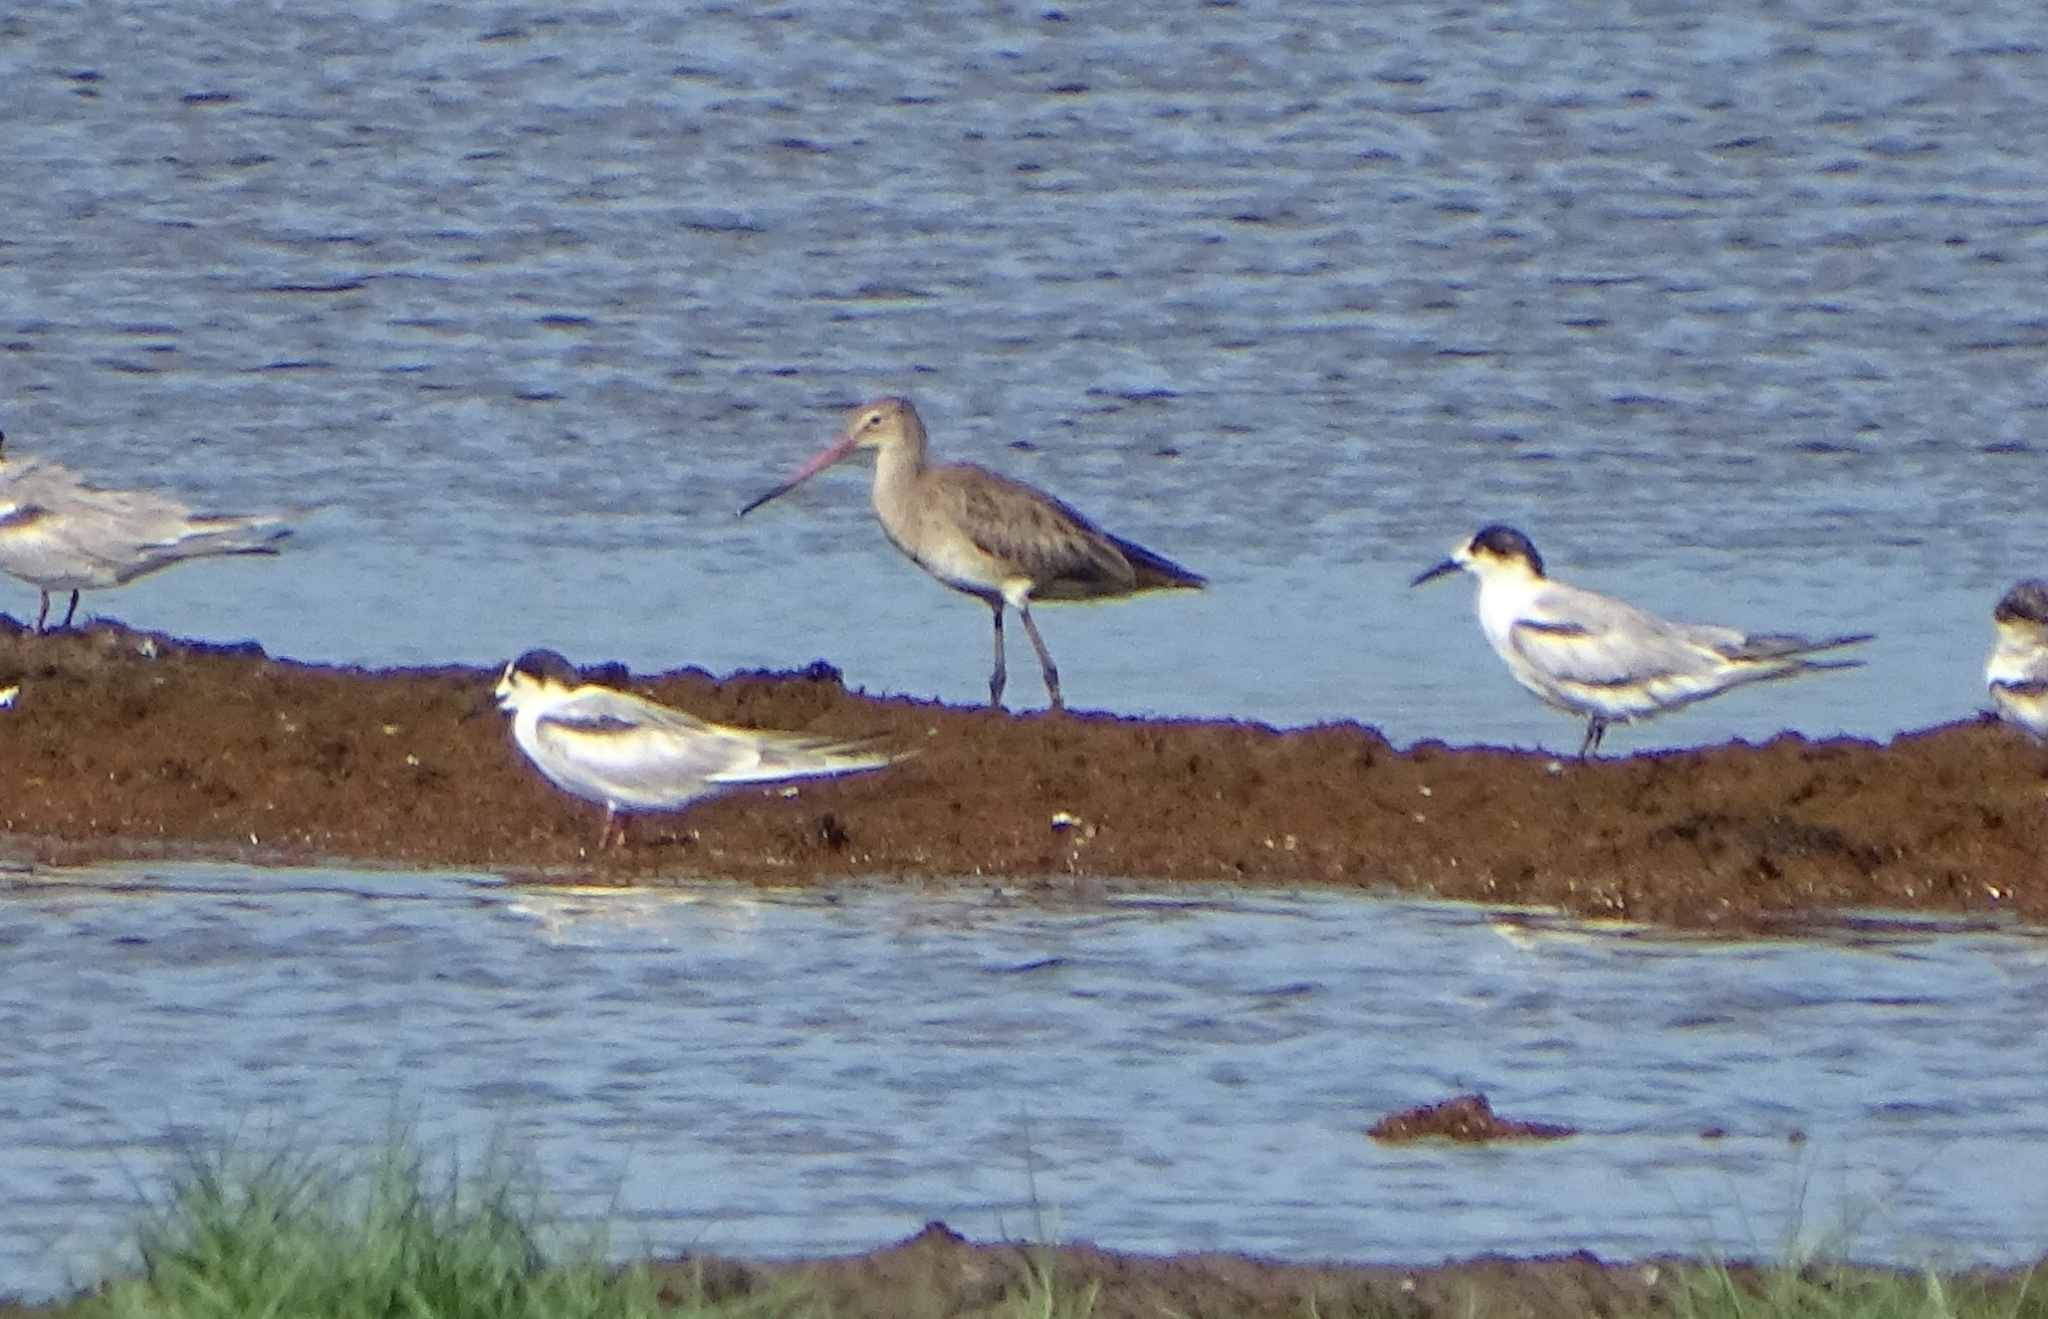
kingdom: Animalia
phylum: Chordata
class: Aves
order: Charadriiformes
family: Scolopacidae
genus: Limosa
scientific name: Limosa limosa
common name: Black-tailed godwit
